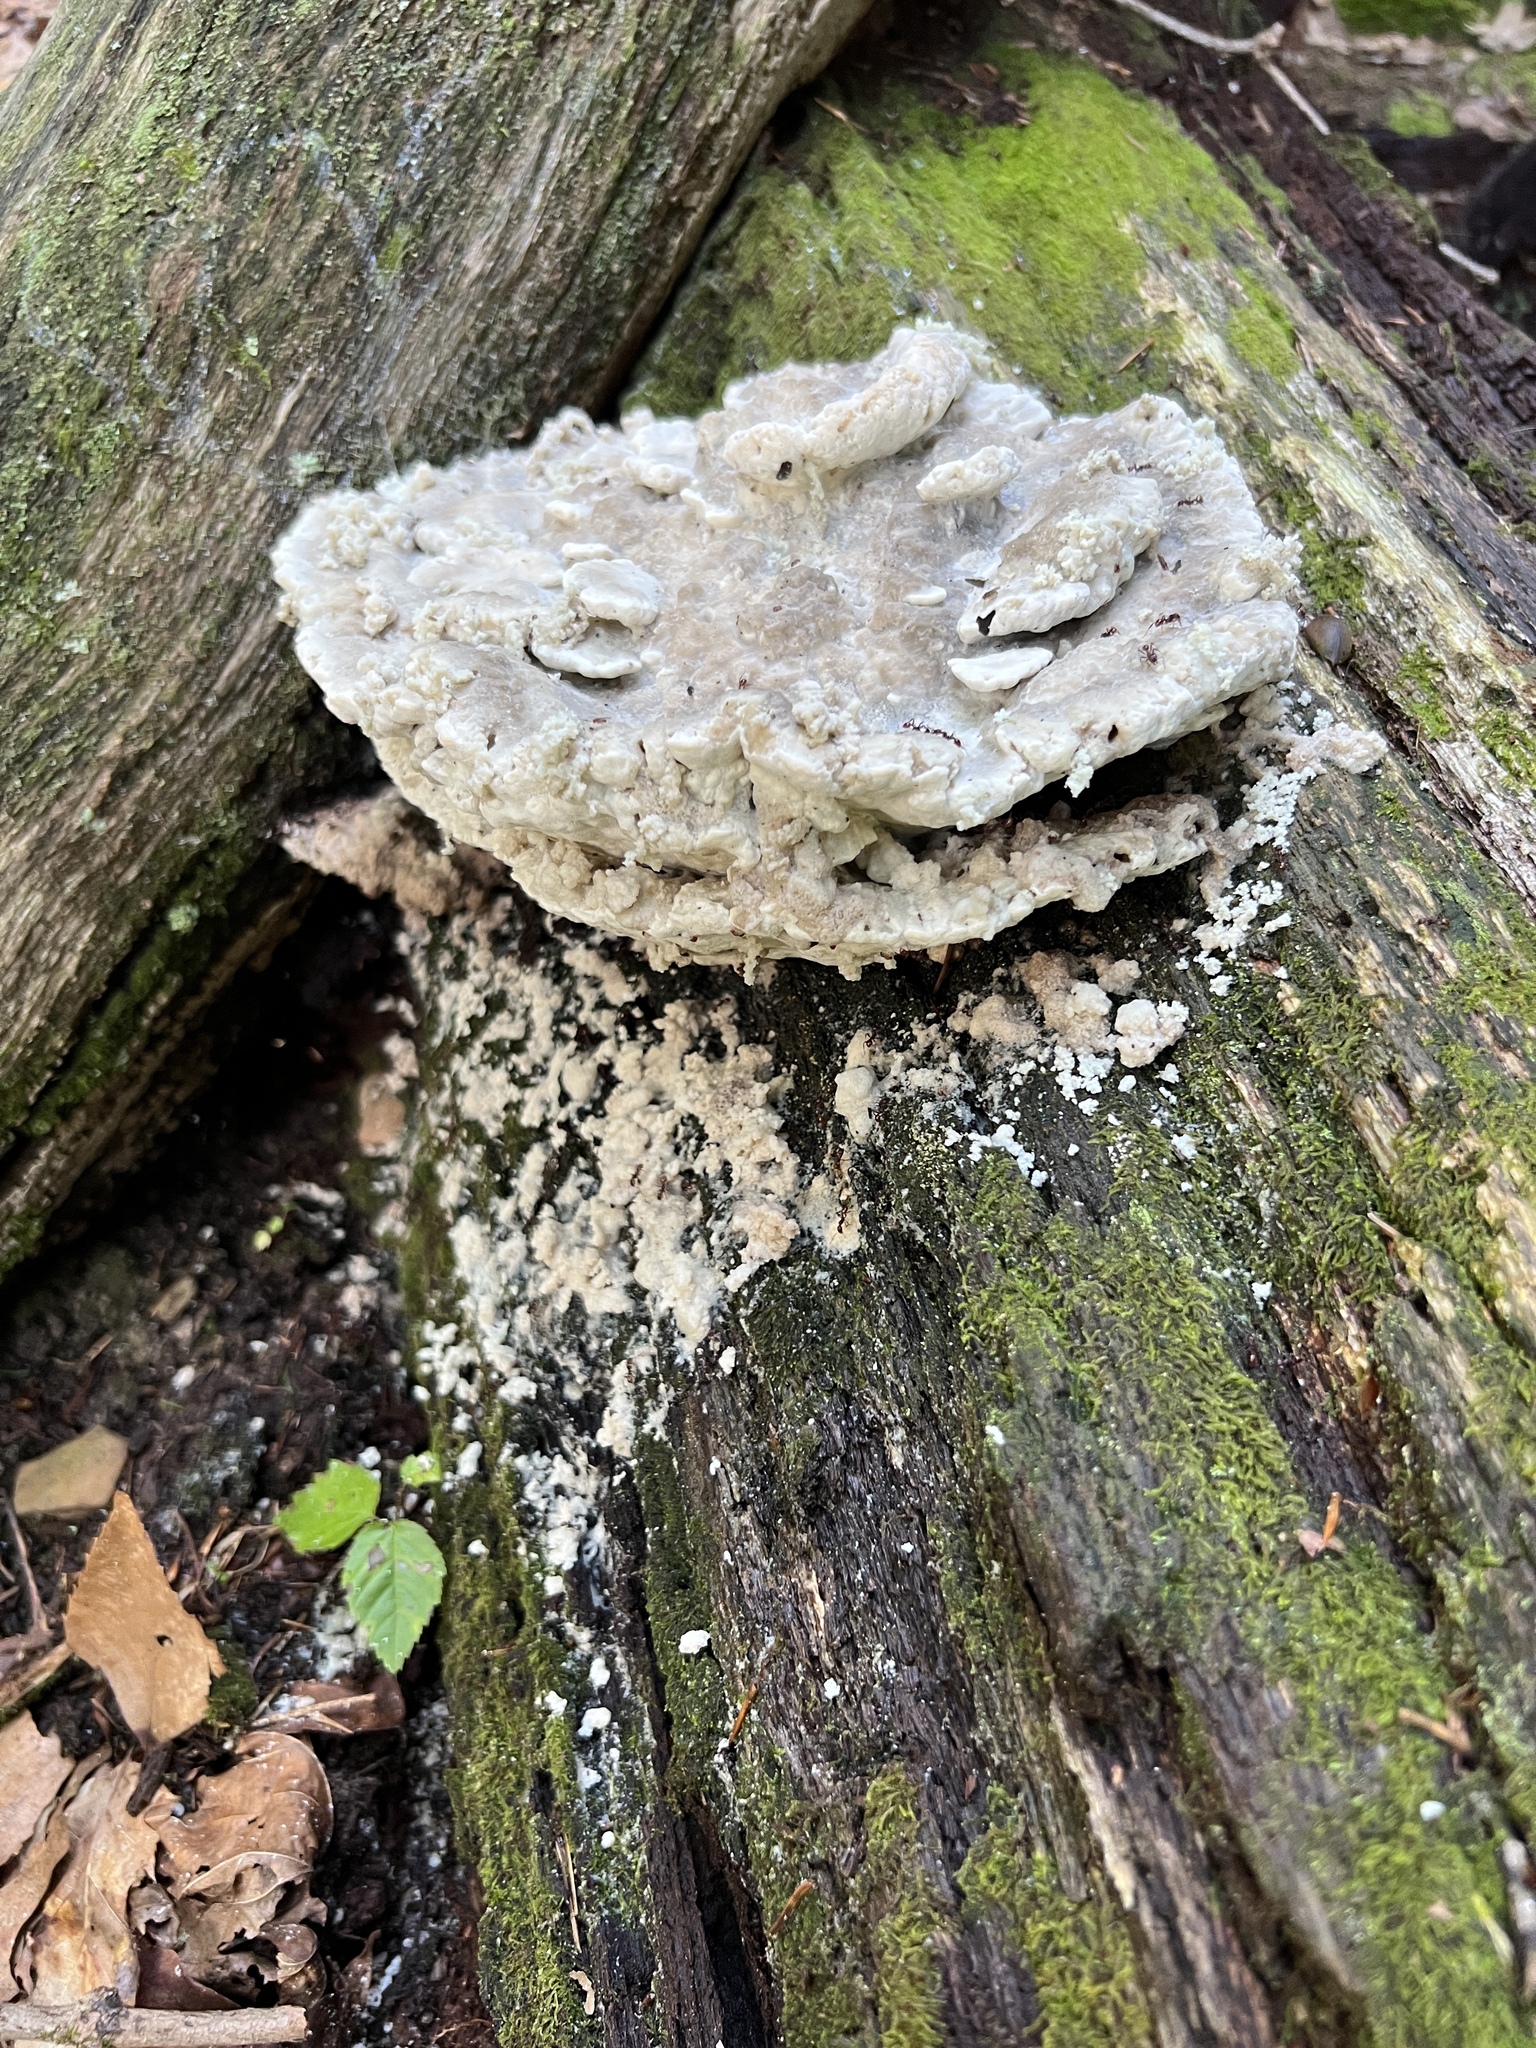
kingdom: Fungi
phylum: Basidiomycota
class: Agaricomycetes
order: Polyporales
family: Fomitopsidaceae
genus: Niveoporofomes
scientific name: Niveoporofomes spraguei
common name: Green cheese polypore
